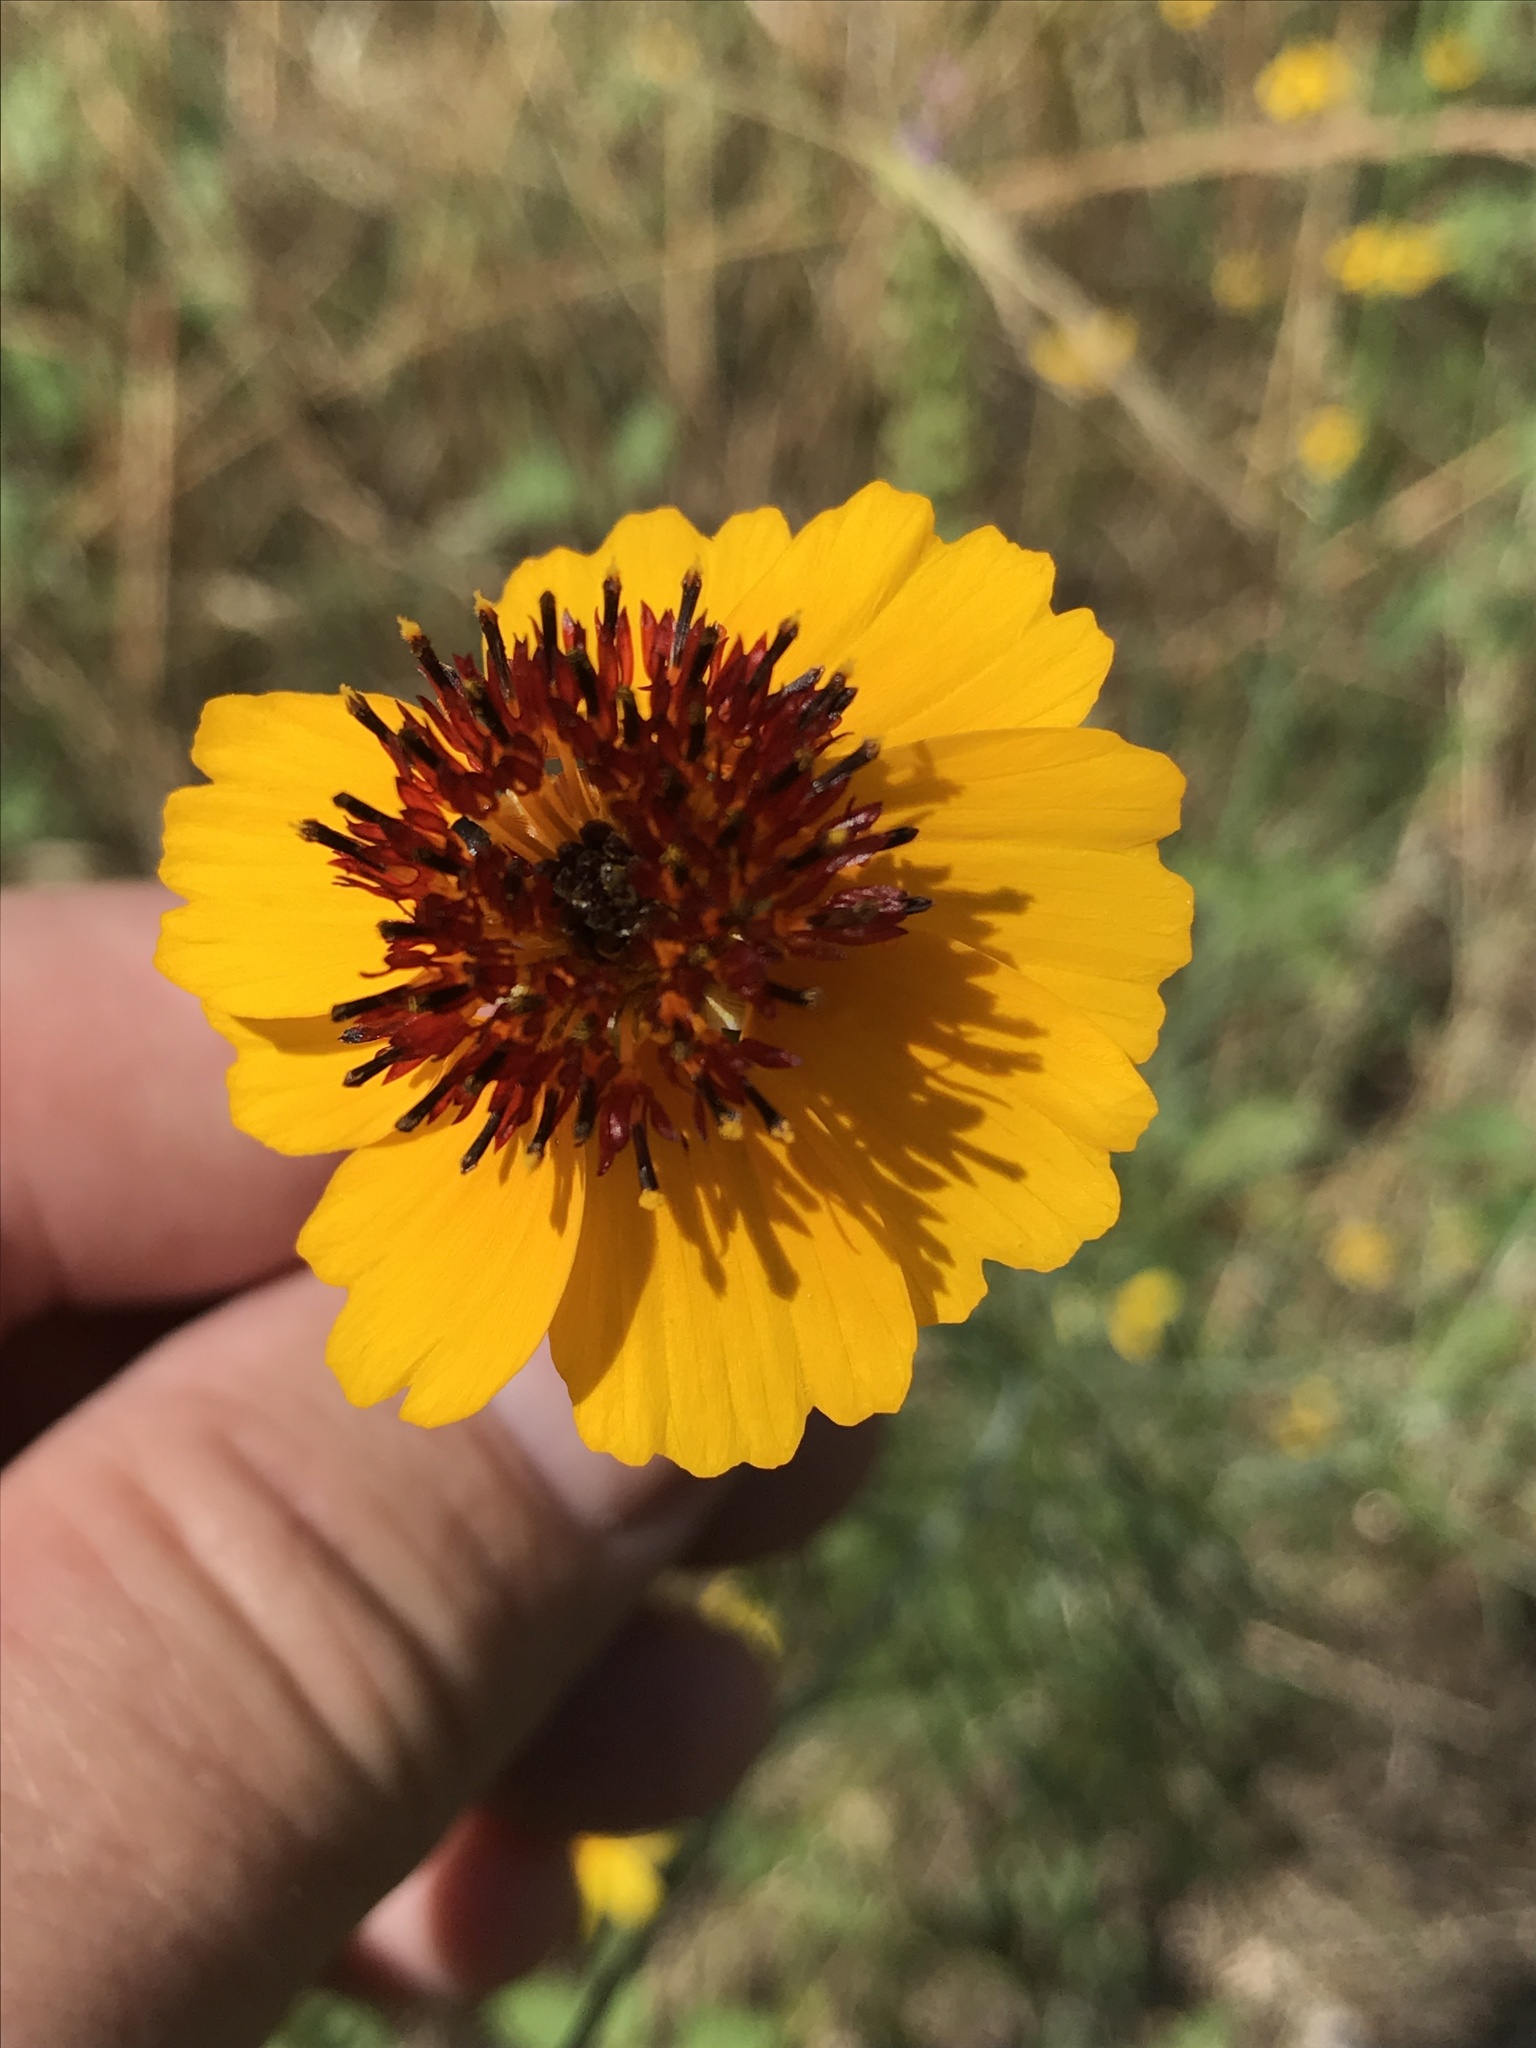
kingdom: Plantae
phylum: Tracheophyta
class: Magnoliopsida
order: Asterales
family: Asteraceae
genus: Thelesperma
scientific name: Thelesperma filifolium
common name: Stiff greenthread
